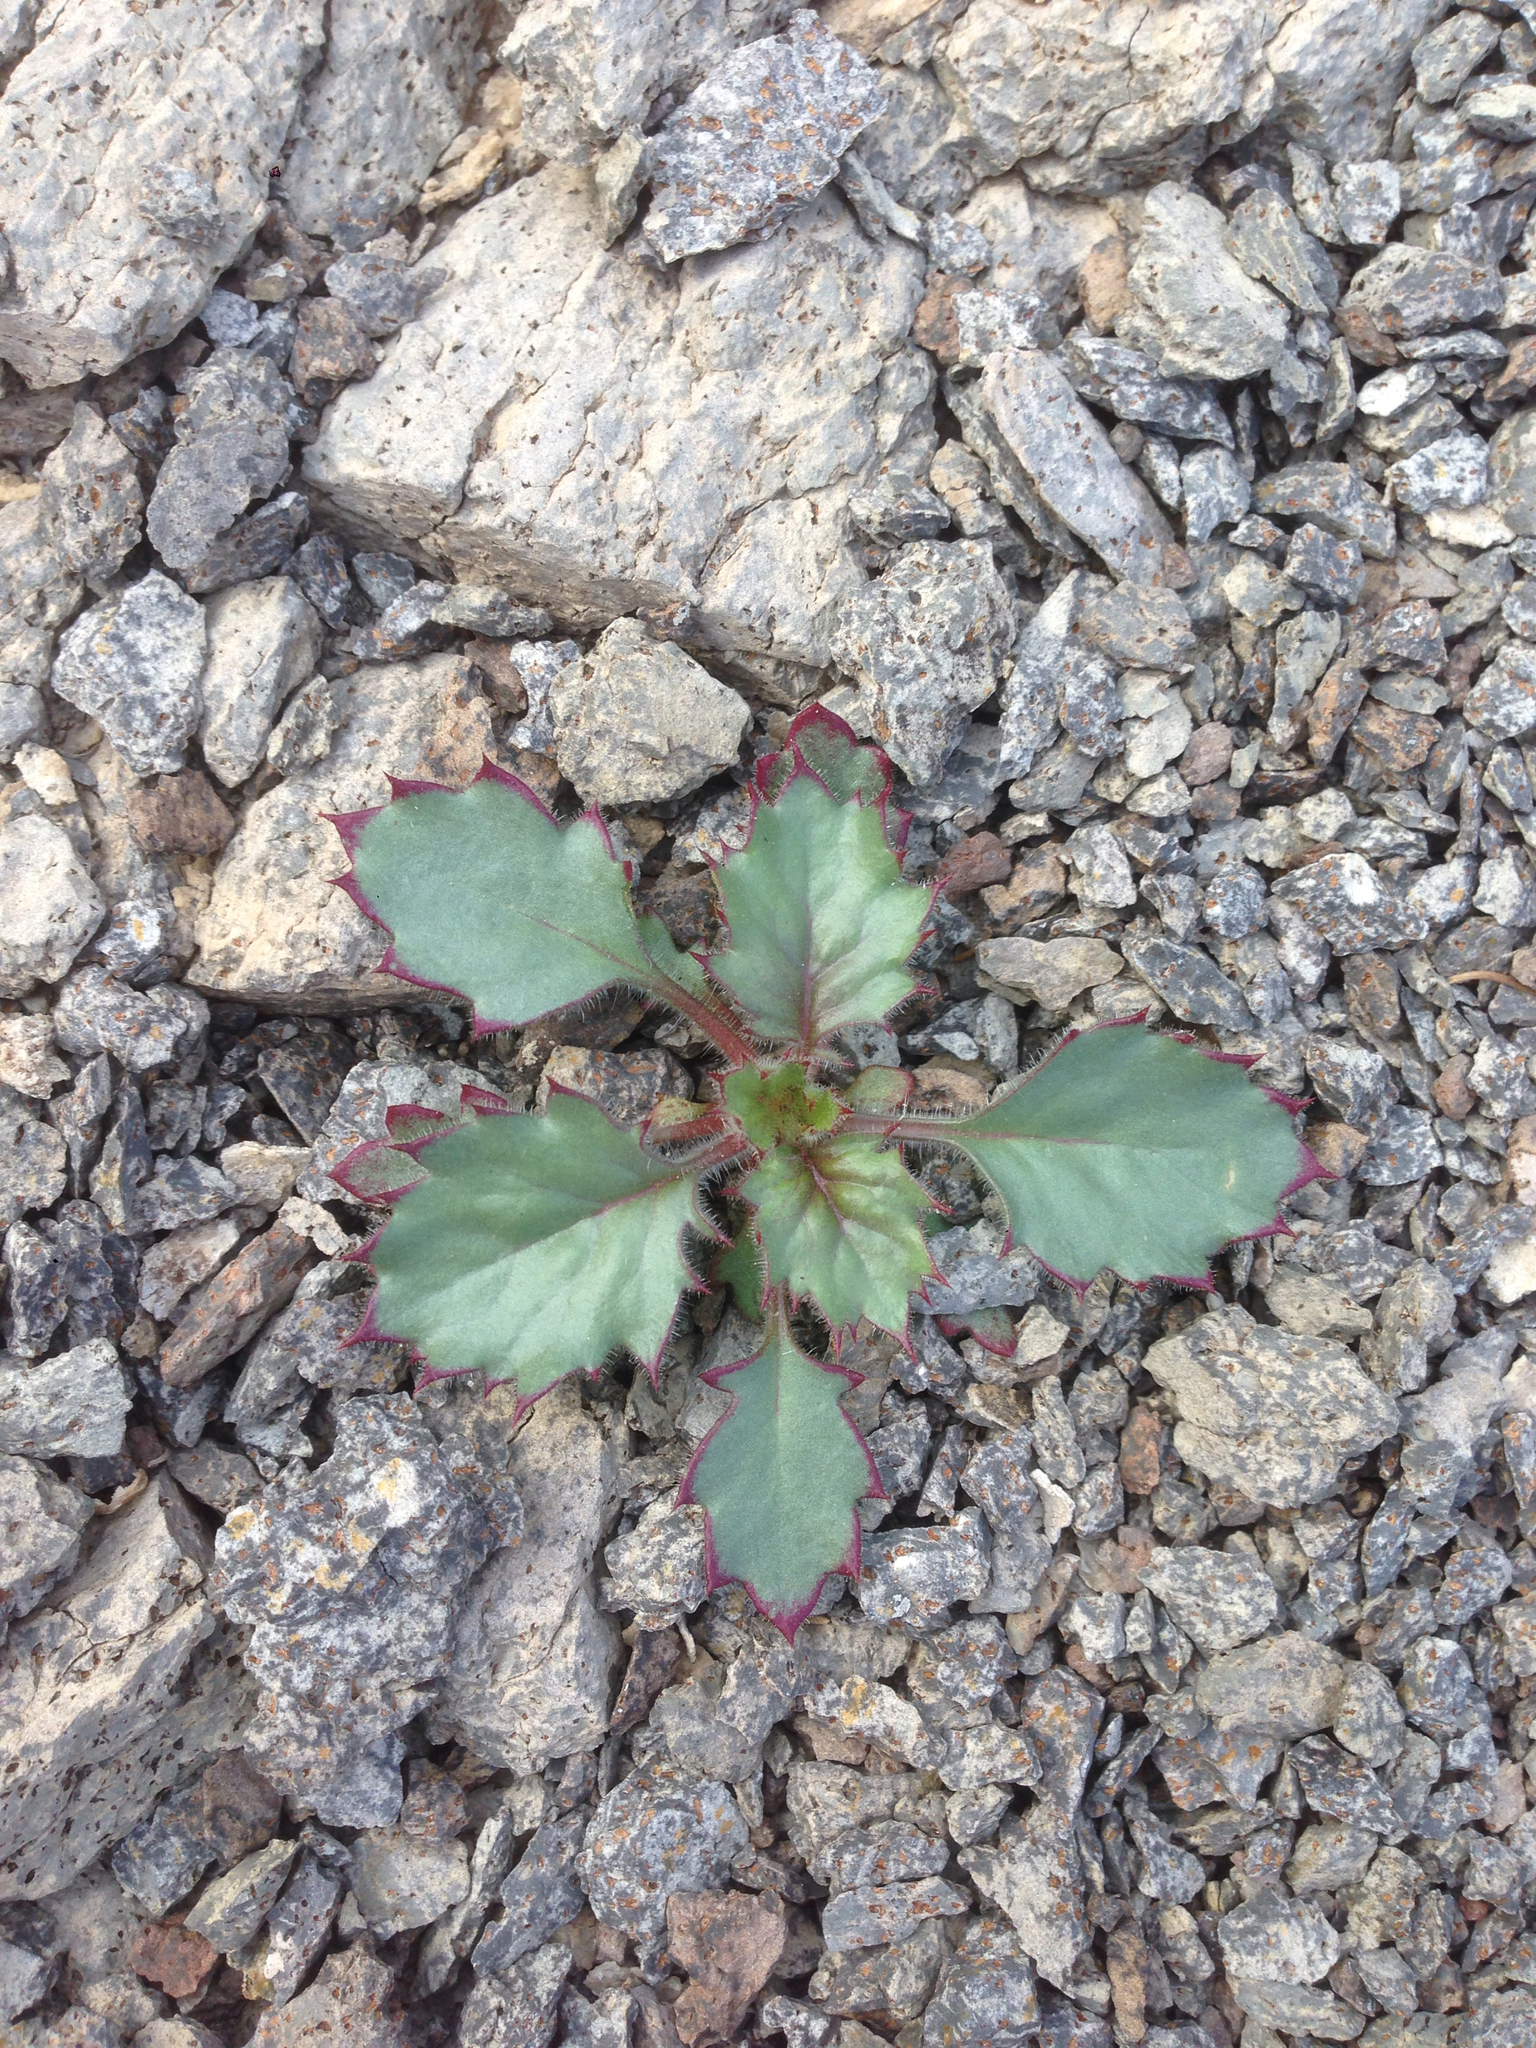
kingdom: Plantae
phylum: Tracheophyta
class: Magnoliopsida
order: Ericales
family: Polemoniaceae
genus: Aliciella
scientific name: Aliciella latifolia
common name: Broad-leaf gilia
